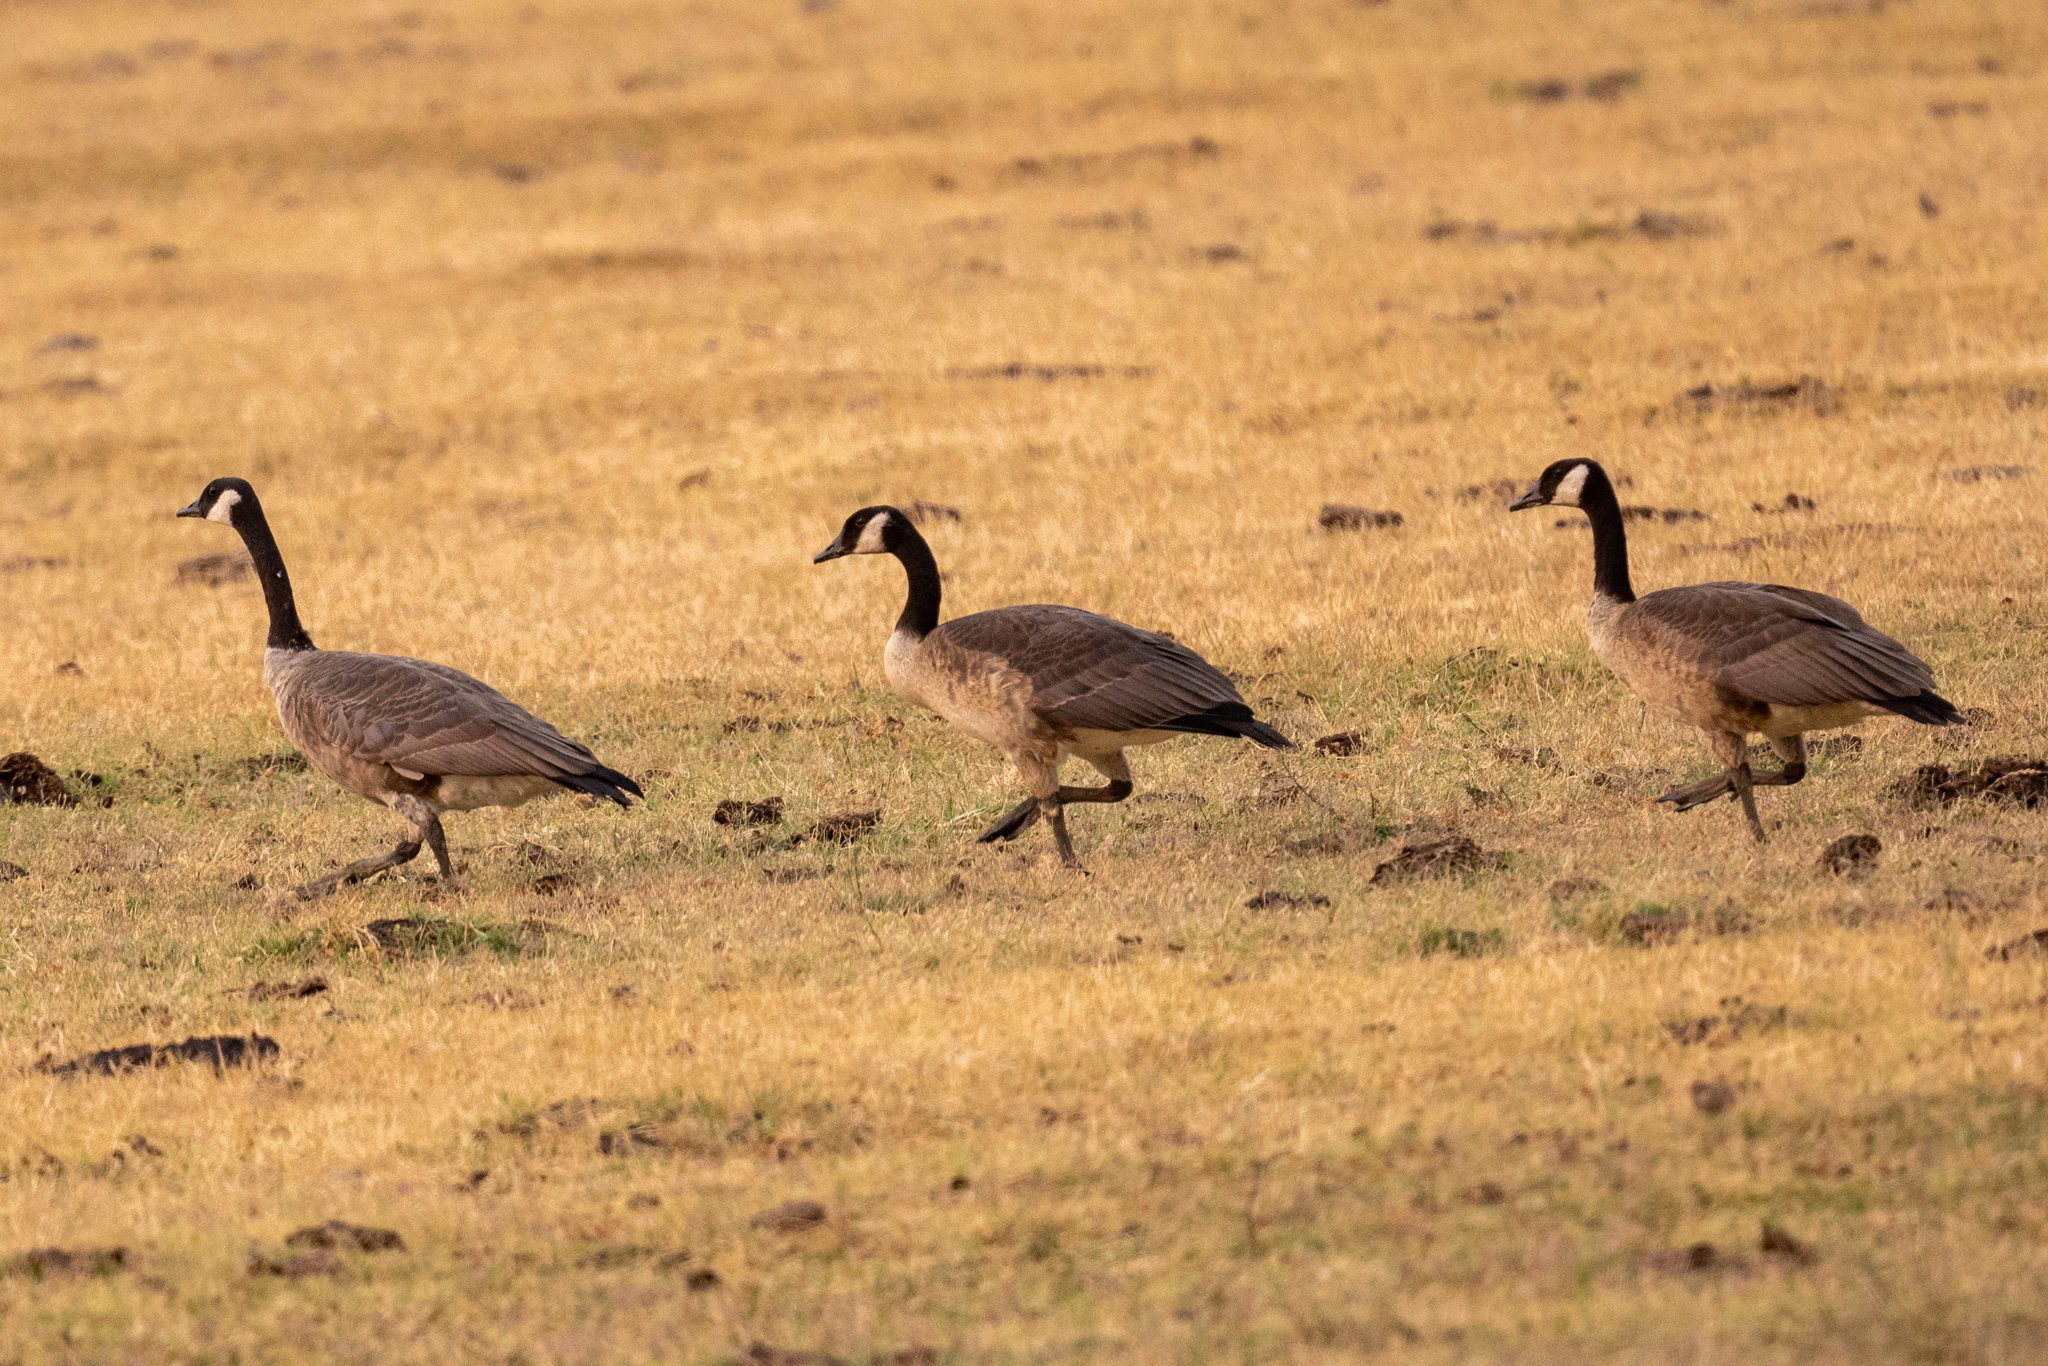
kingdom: Animalia
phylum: Chordata
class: Aves
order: Anseriformes
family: Anatidae
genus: Branta
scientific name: Branta canadensis
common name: Canada goose
